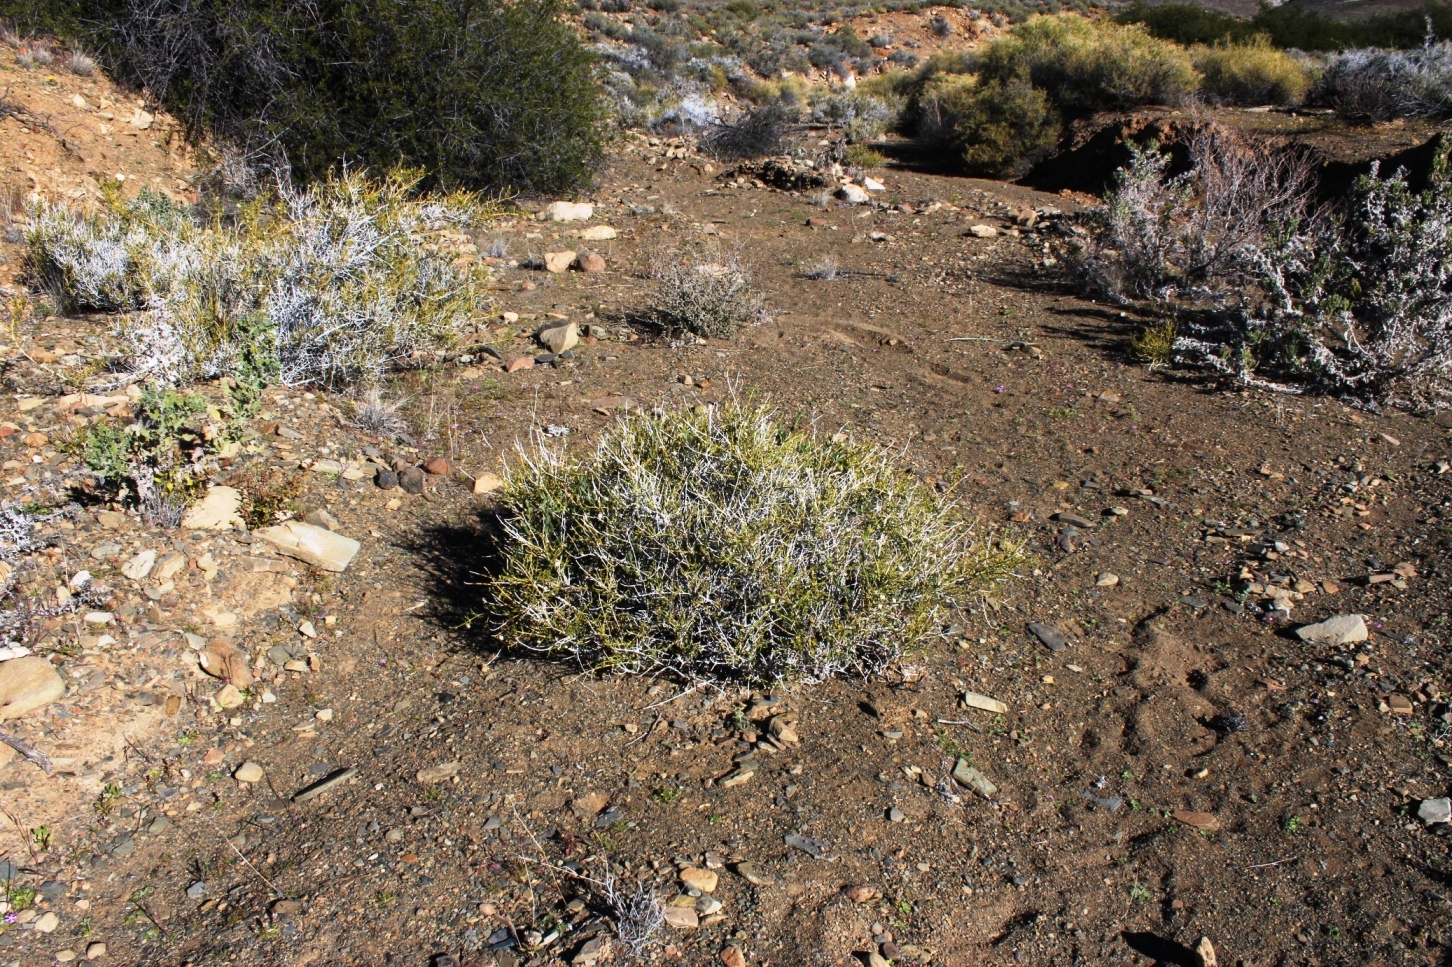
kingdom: Plantae
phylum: Tracheophyta
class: Magnoliopsida
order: Lamiales
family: Acanthaceae
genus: Pogonospermum
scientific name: Pogonospermum
